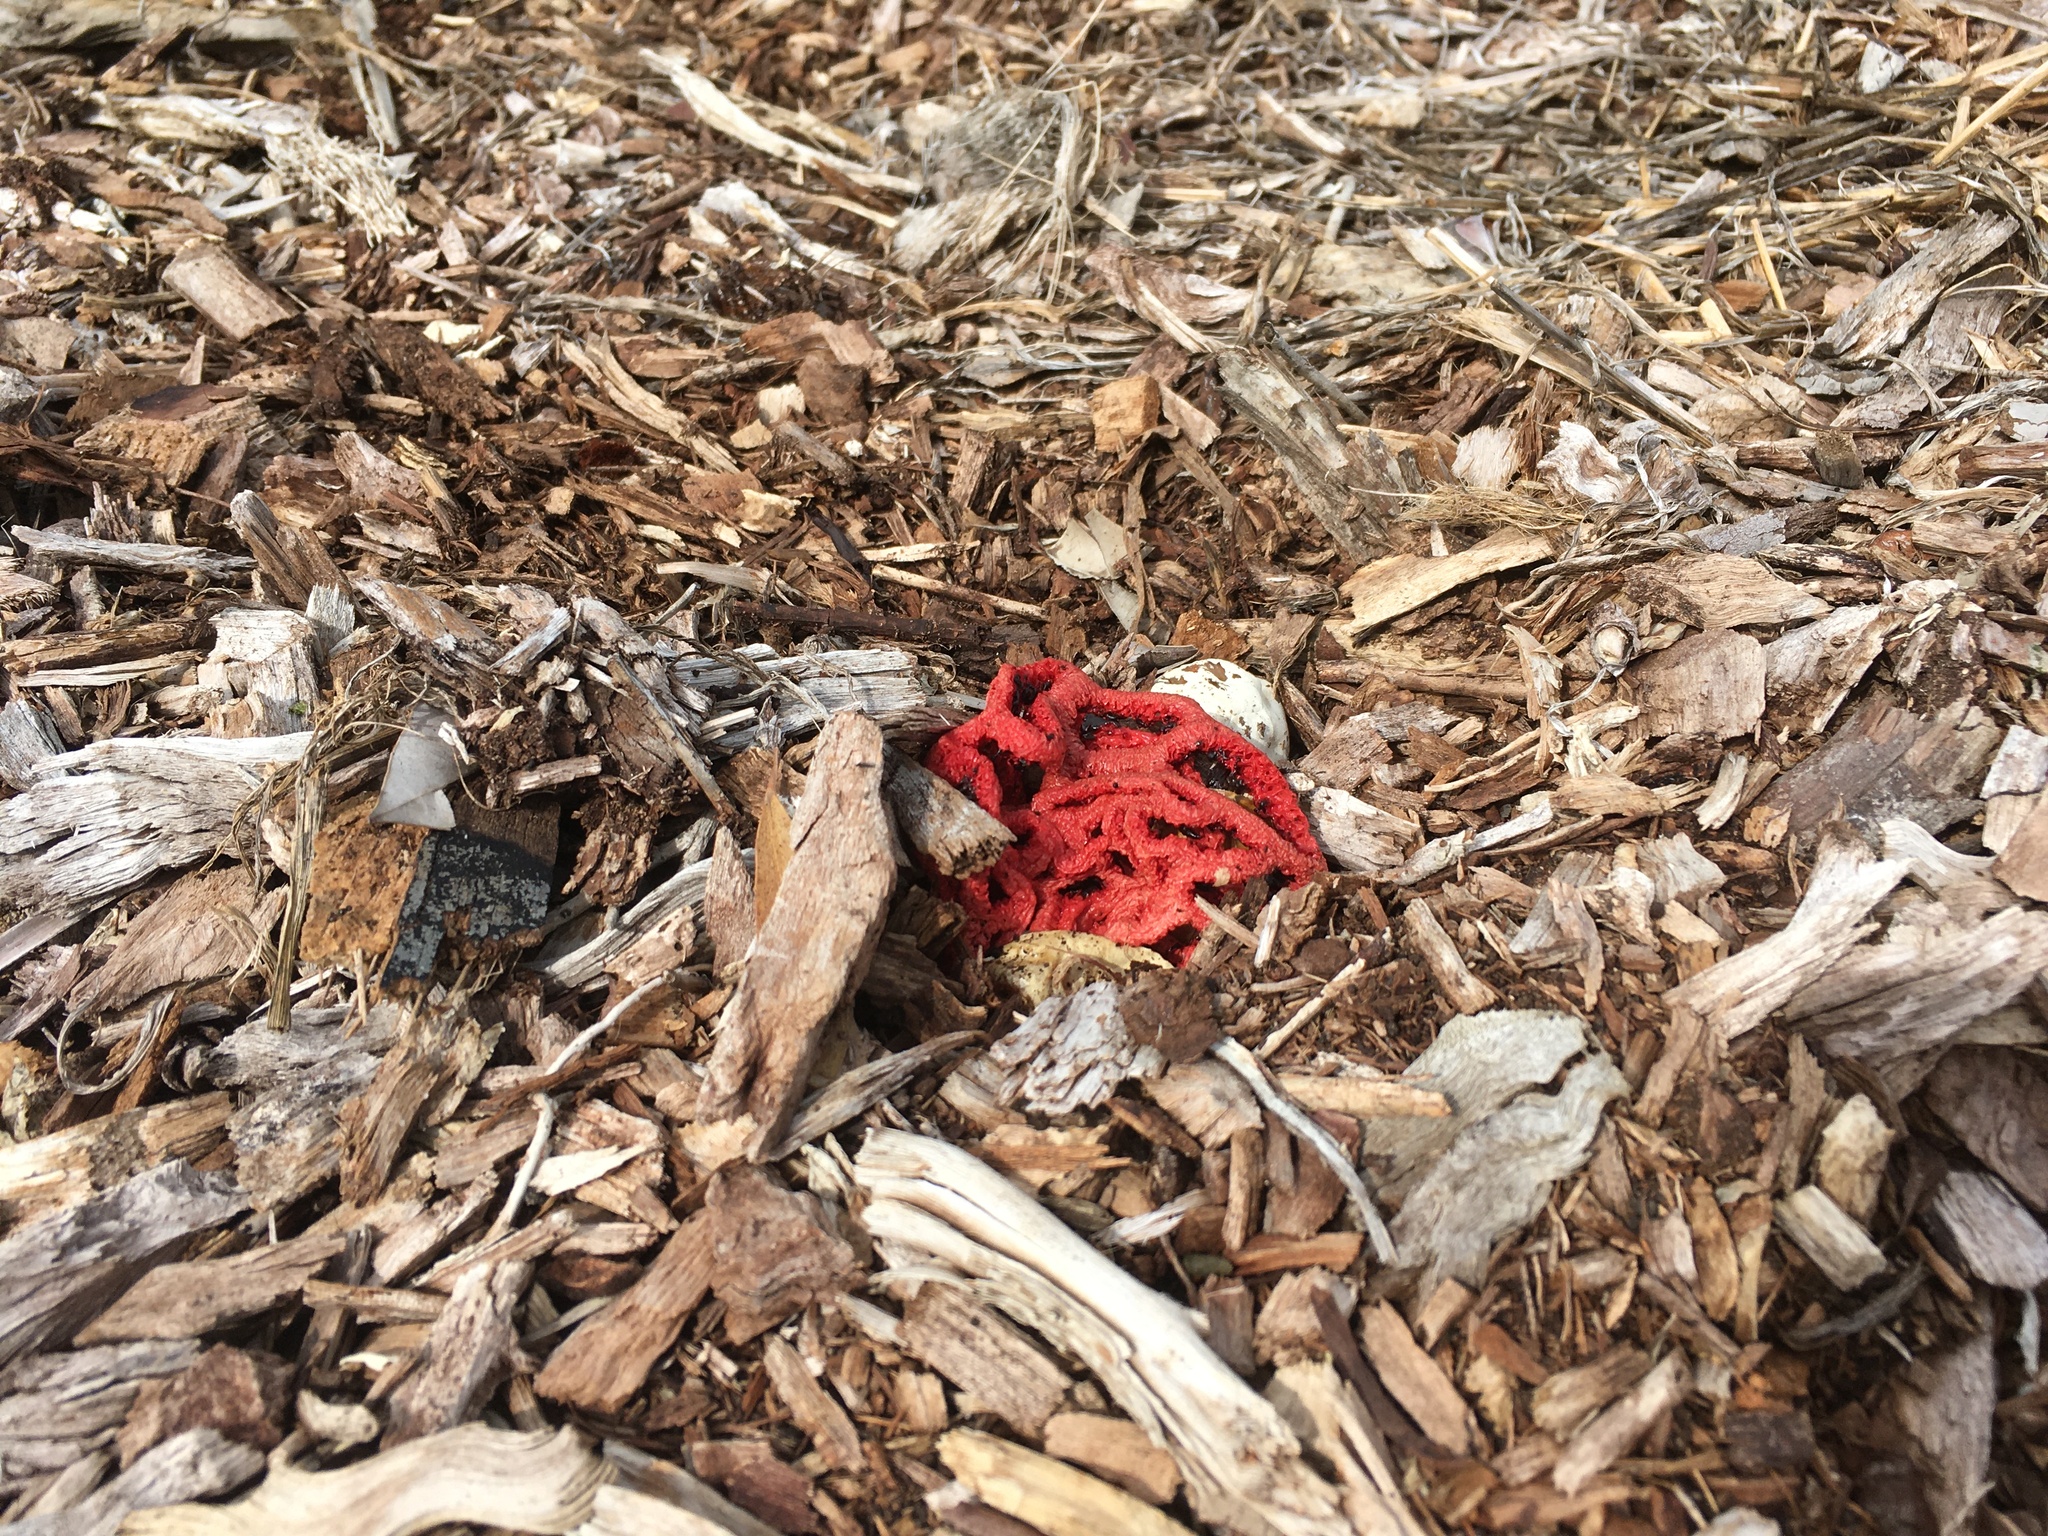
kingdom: Fungi
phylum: Basidiomycota
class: Agaricomycetes
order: Phallales
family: Phallaceae
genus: Clathrus
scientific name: Clathrus ruber
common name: Red cage
